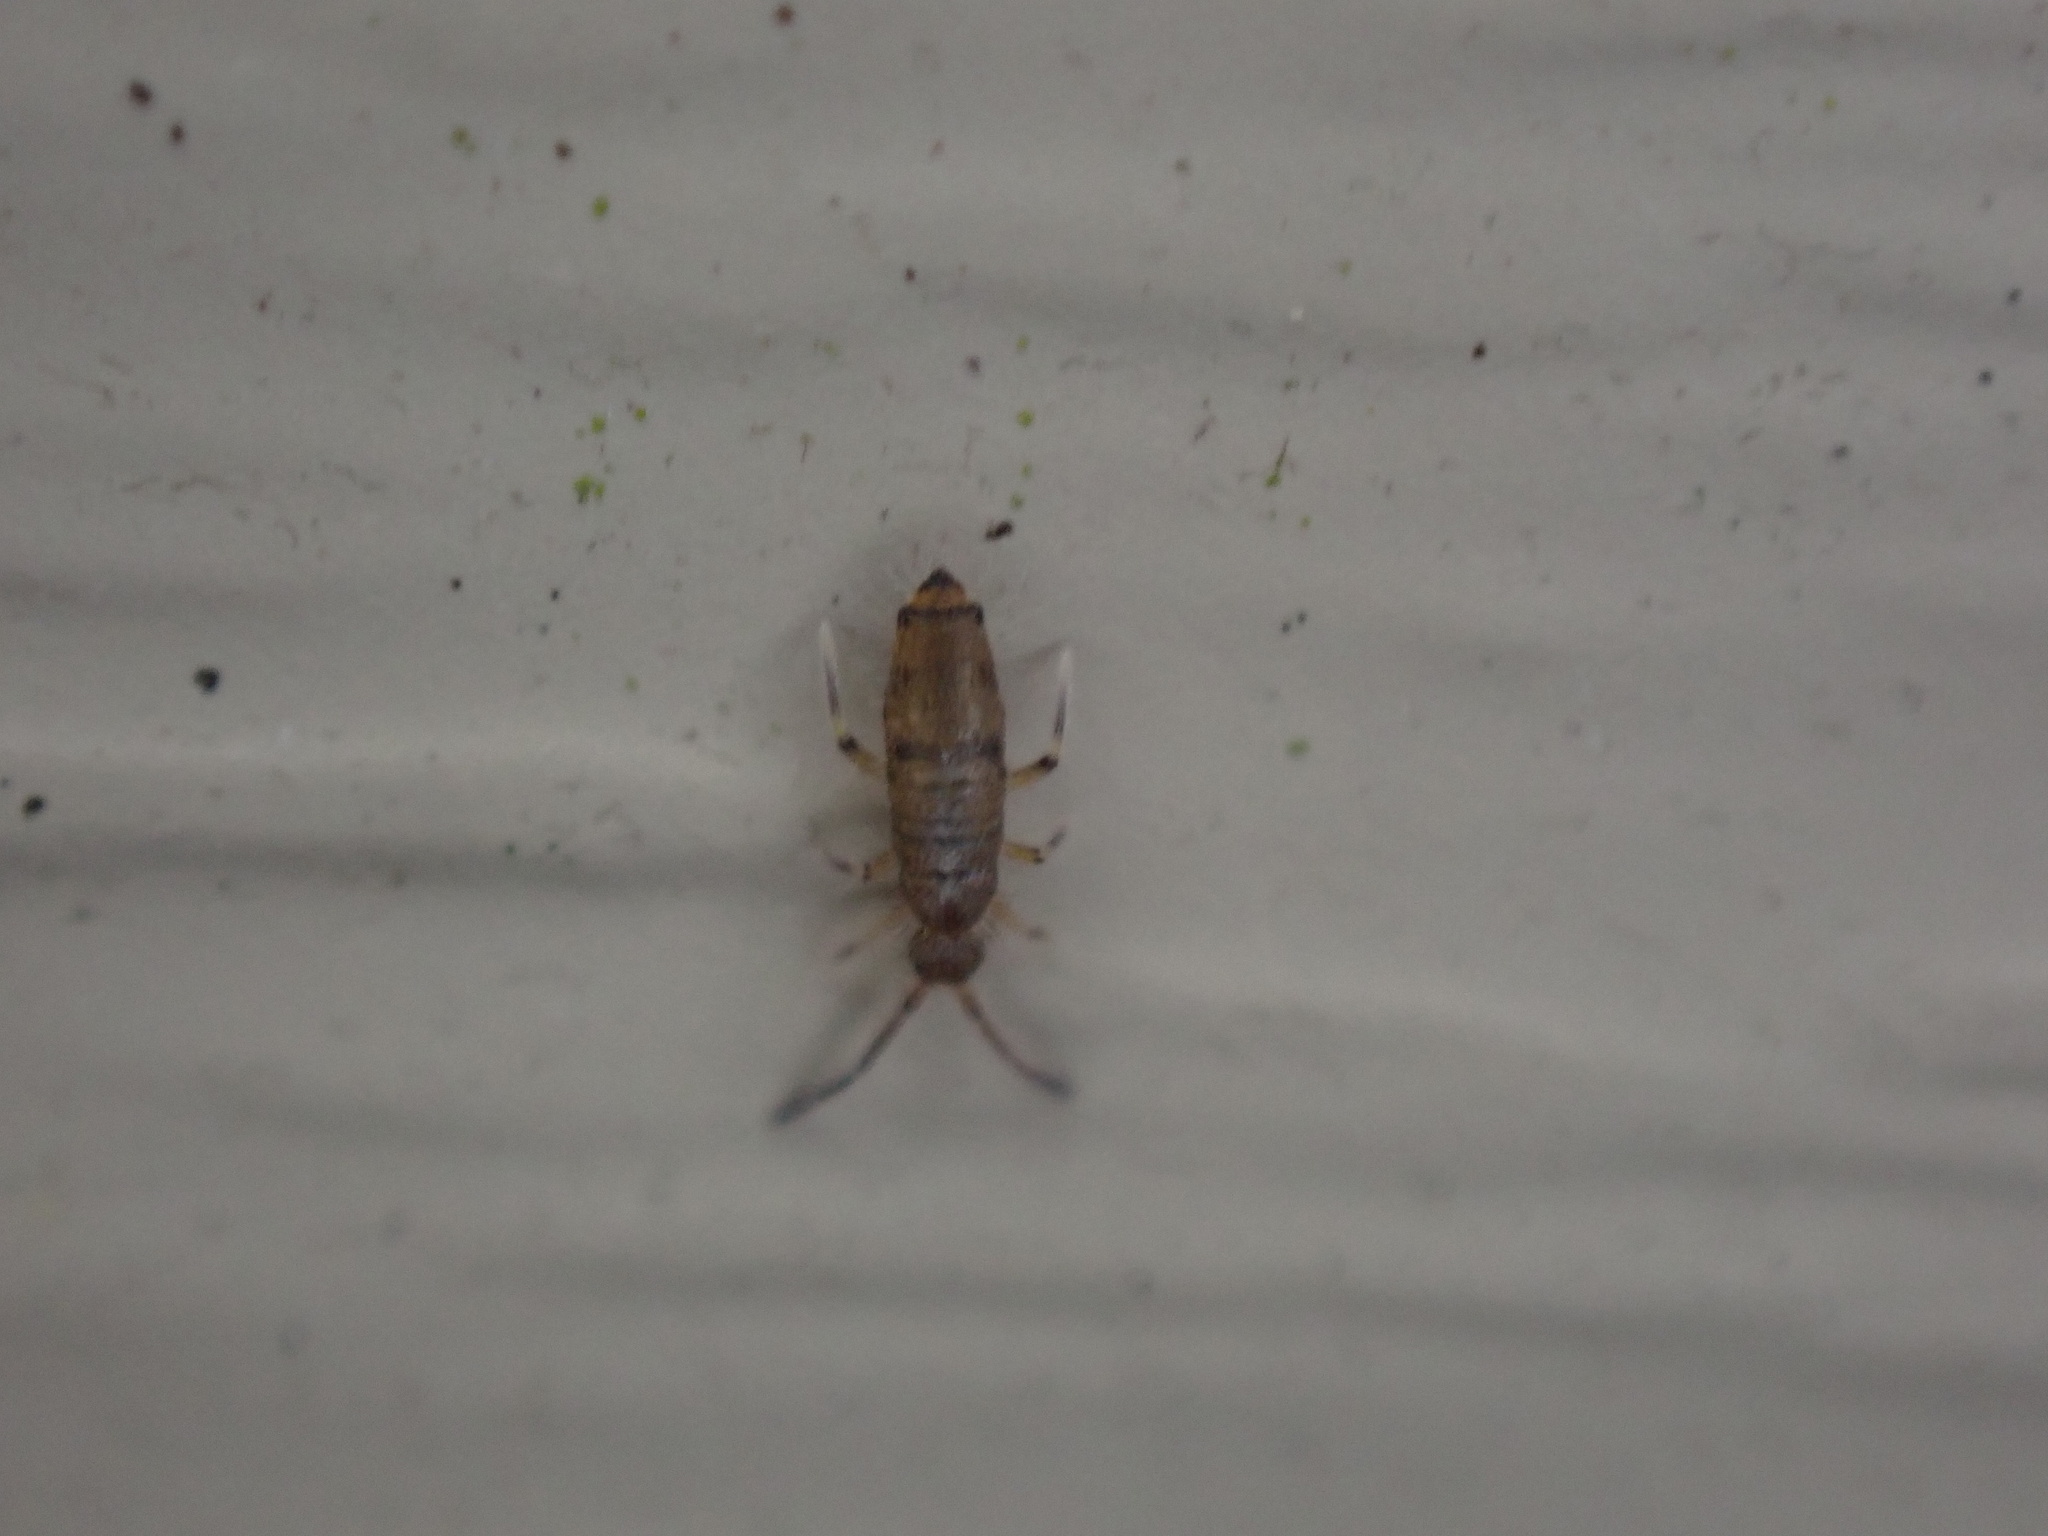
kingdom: Animalia
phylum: Arthropoda
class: Collembola
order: Entomobryomorpha
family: Entomobryidae
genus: Willowsia
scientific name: Willowsia nigromaculata
